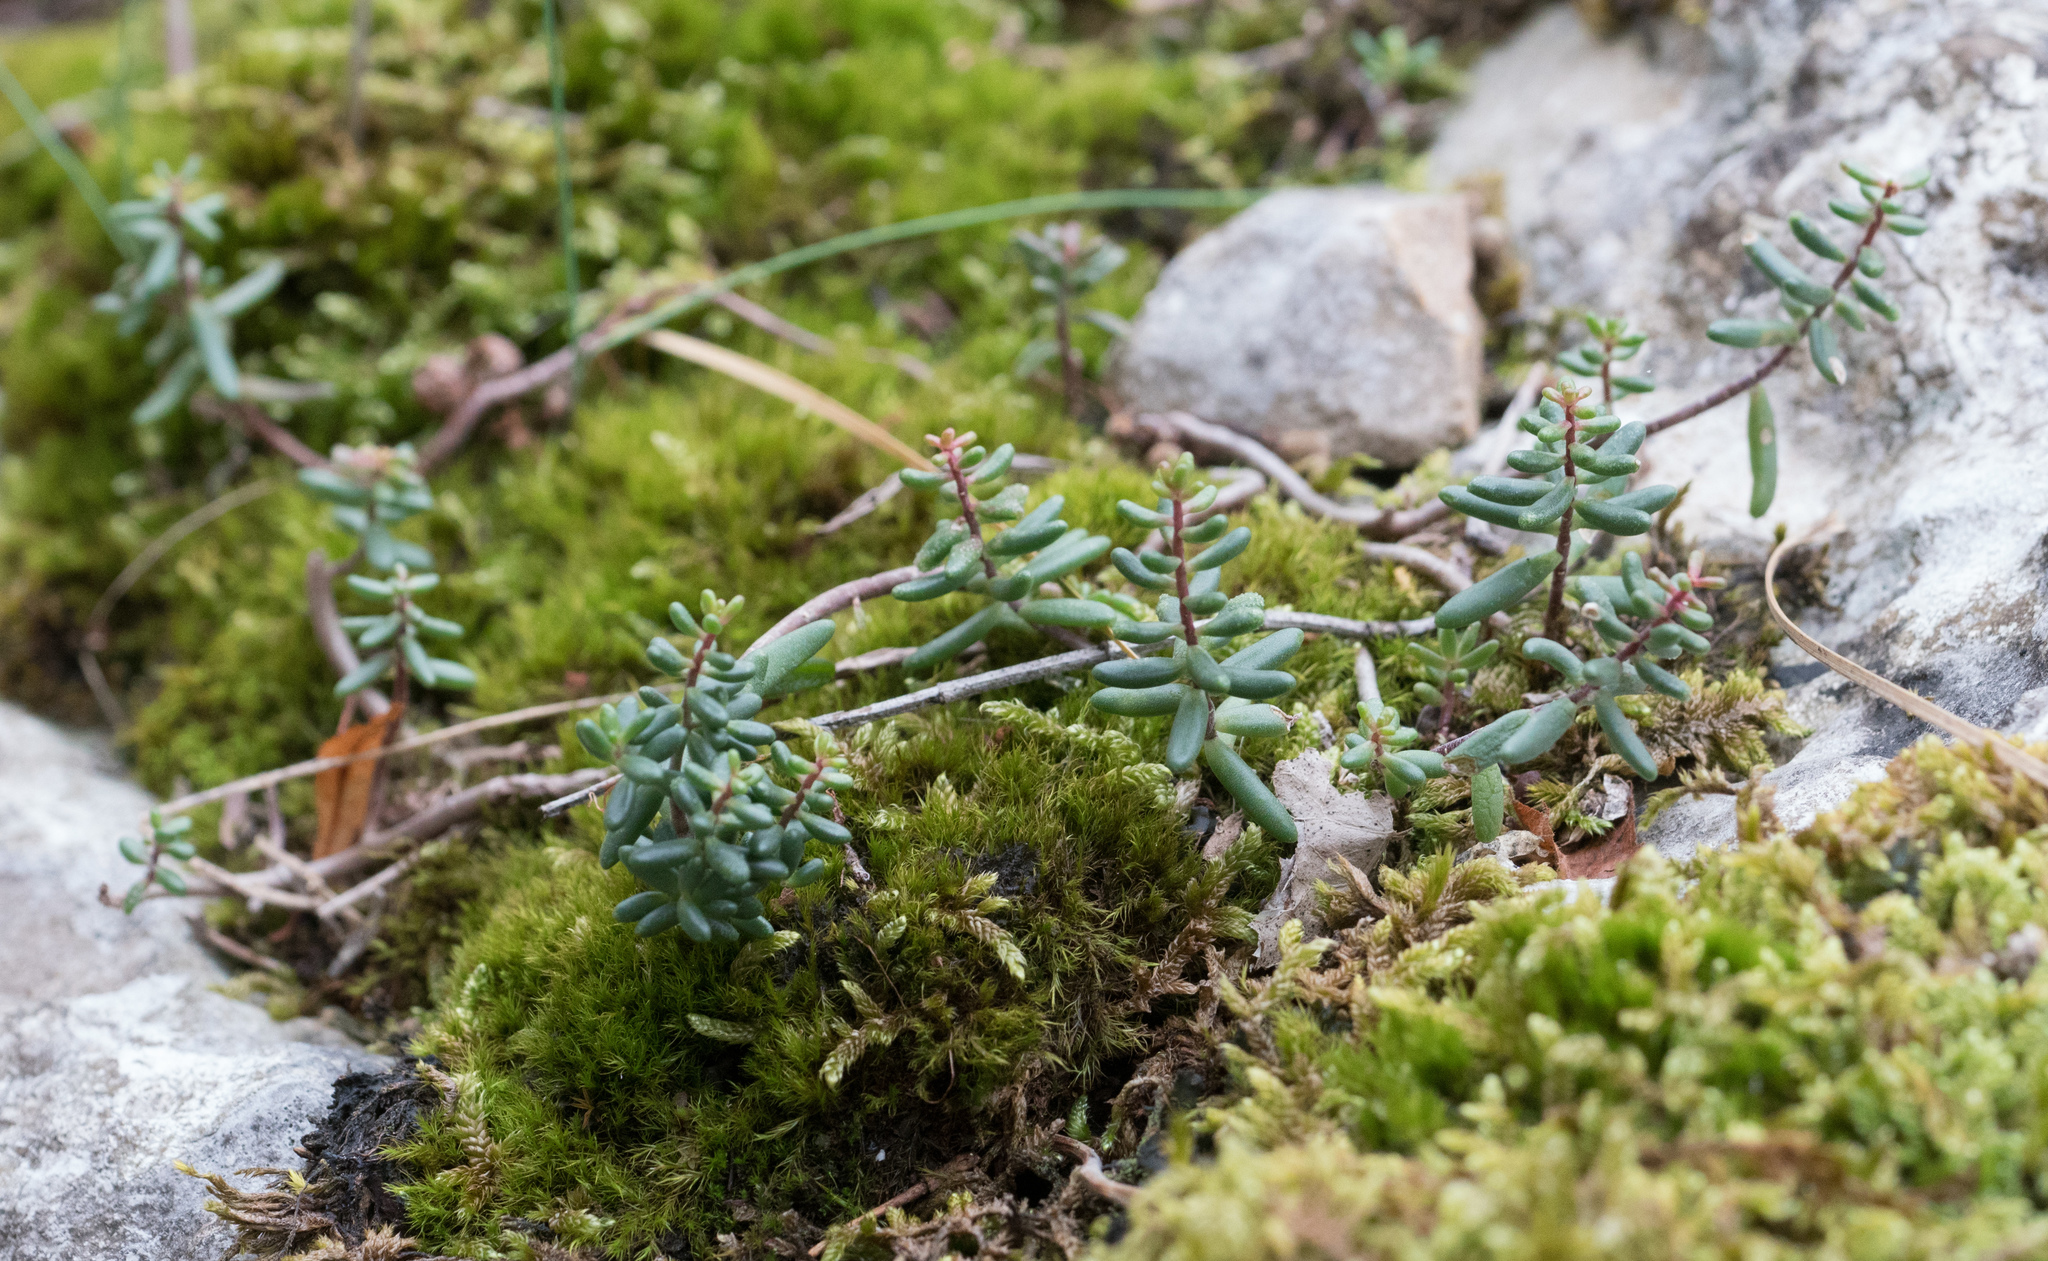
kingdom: Plantae
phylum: Tracheophyta
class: Magnoliopsida
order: Saxifragales
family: Crassulaceae
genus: Sedum
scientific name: Sedum album
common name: White stonecrop
